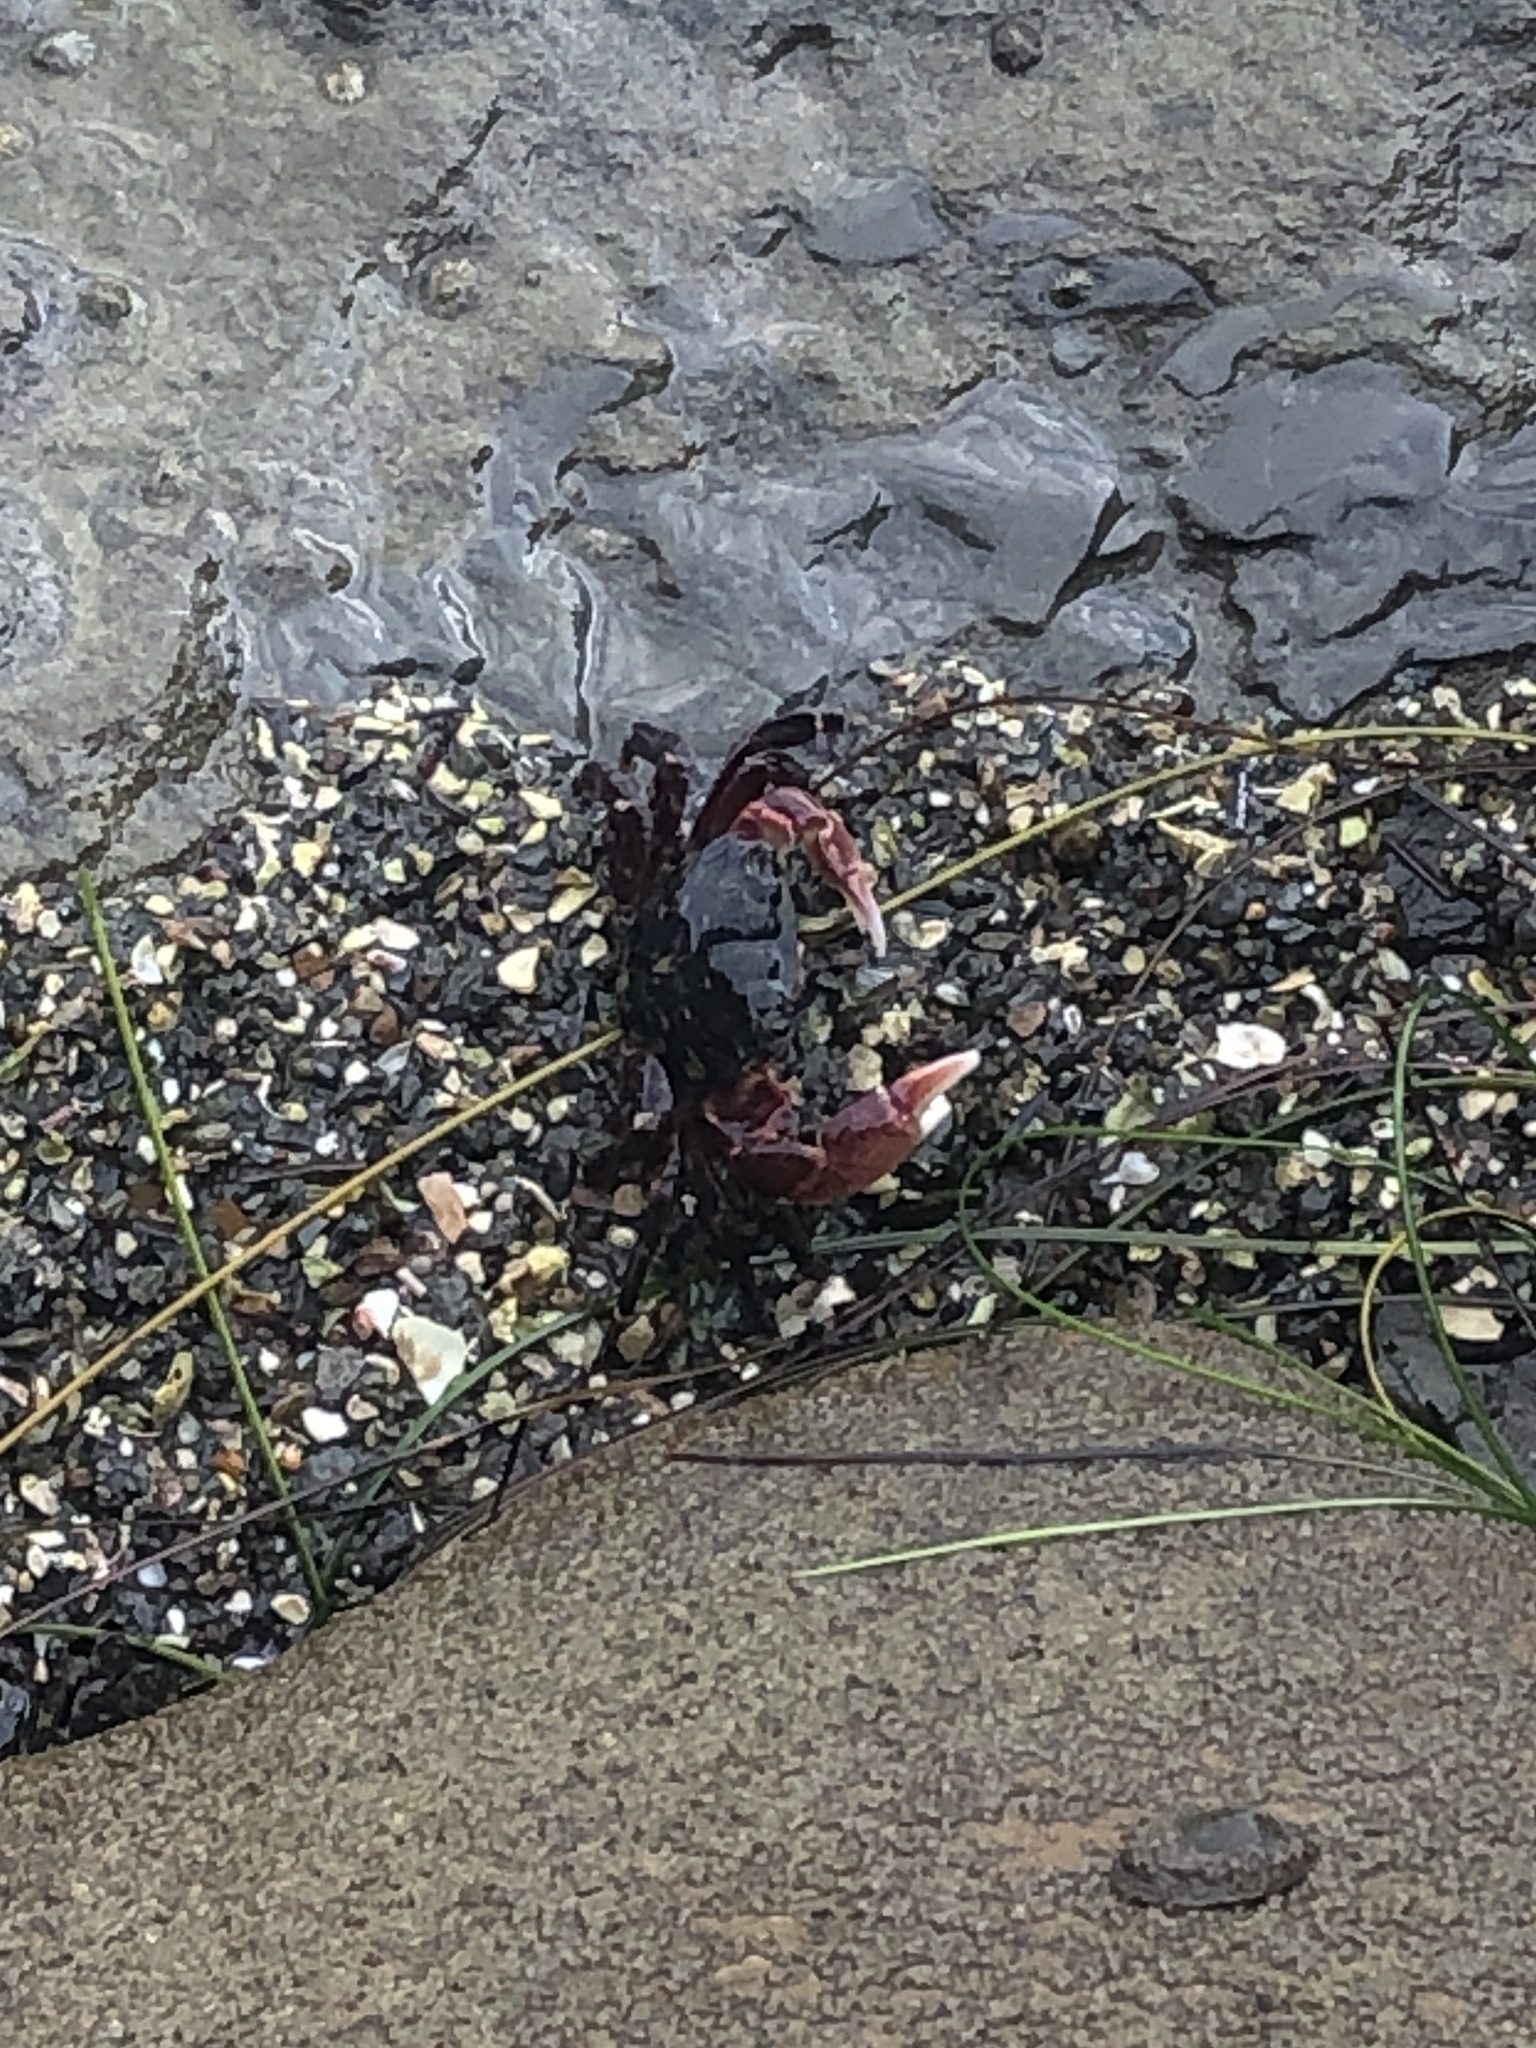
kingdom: Animalia
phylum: Arthropoda
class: Malacostraca
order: Decapoda
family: Grapsidae
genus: Pachygrapsus
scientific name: Pachygrapsus crassipes
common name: Striped shore crab
